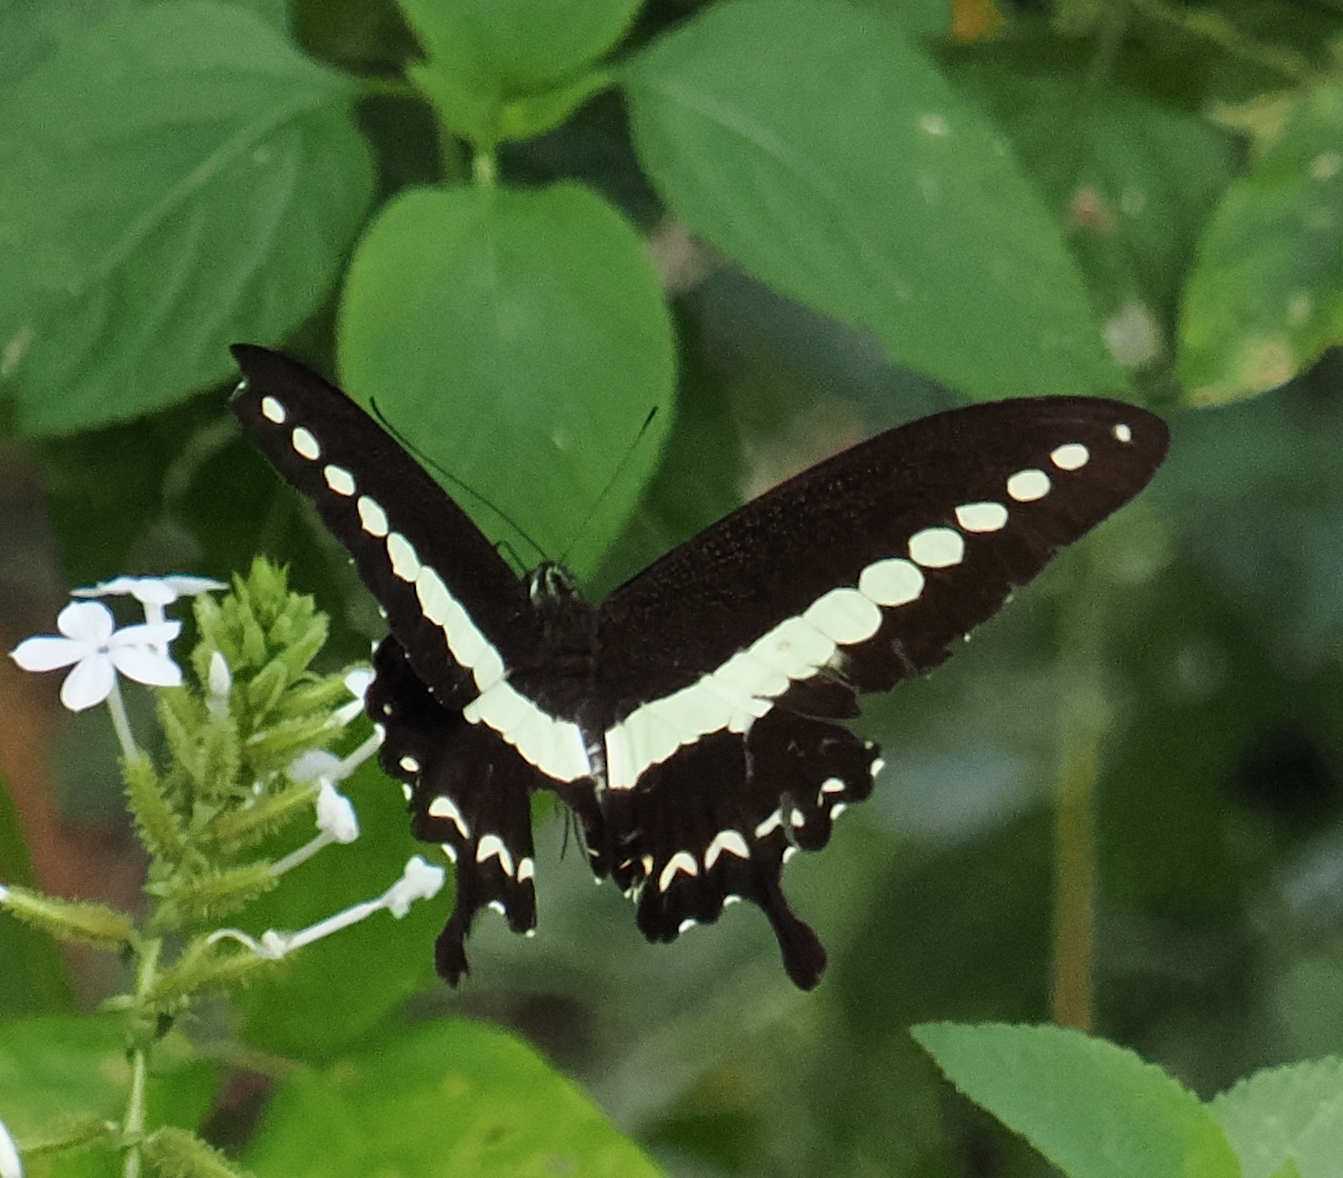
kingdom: Animalia
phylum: Arthropoda
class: Insecta
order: Lepidoptera
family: Papilionidae
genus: Papilio
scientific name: Papilio demolion
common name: Banded swallowtail
